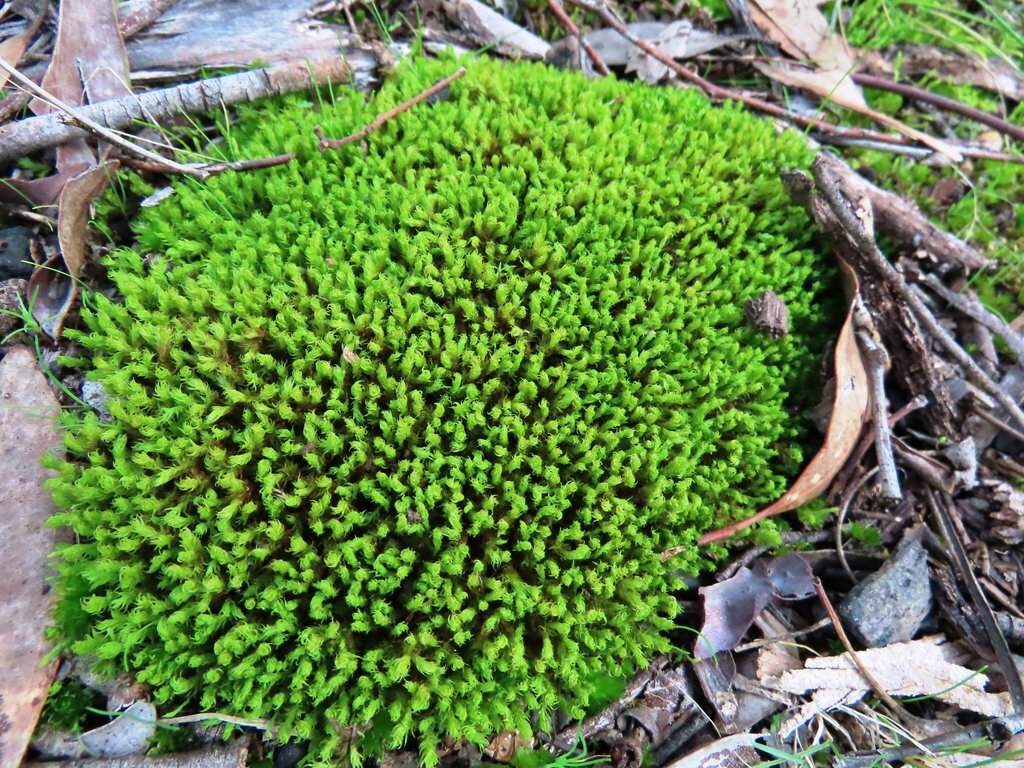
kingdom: Plantae
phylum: Bryophyta
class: Bryopsida
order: Pottiales
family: Pottiaceae
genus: Barbula
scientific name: Barbula calycina
